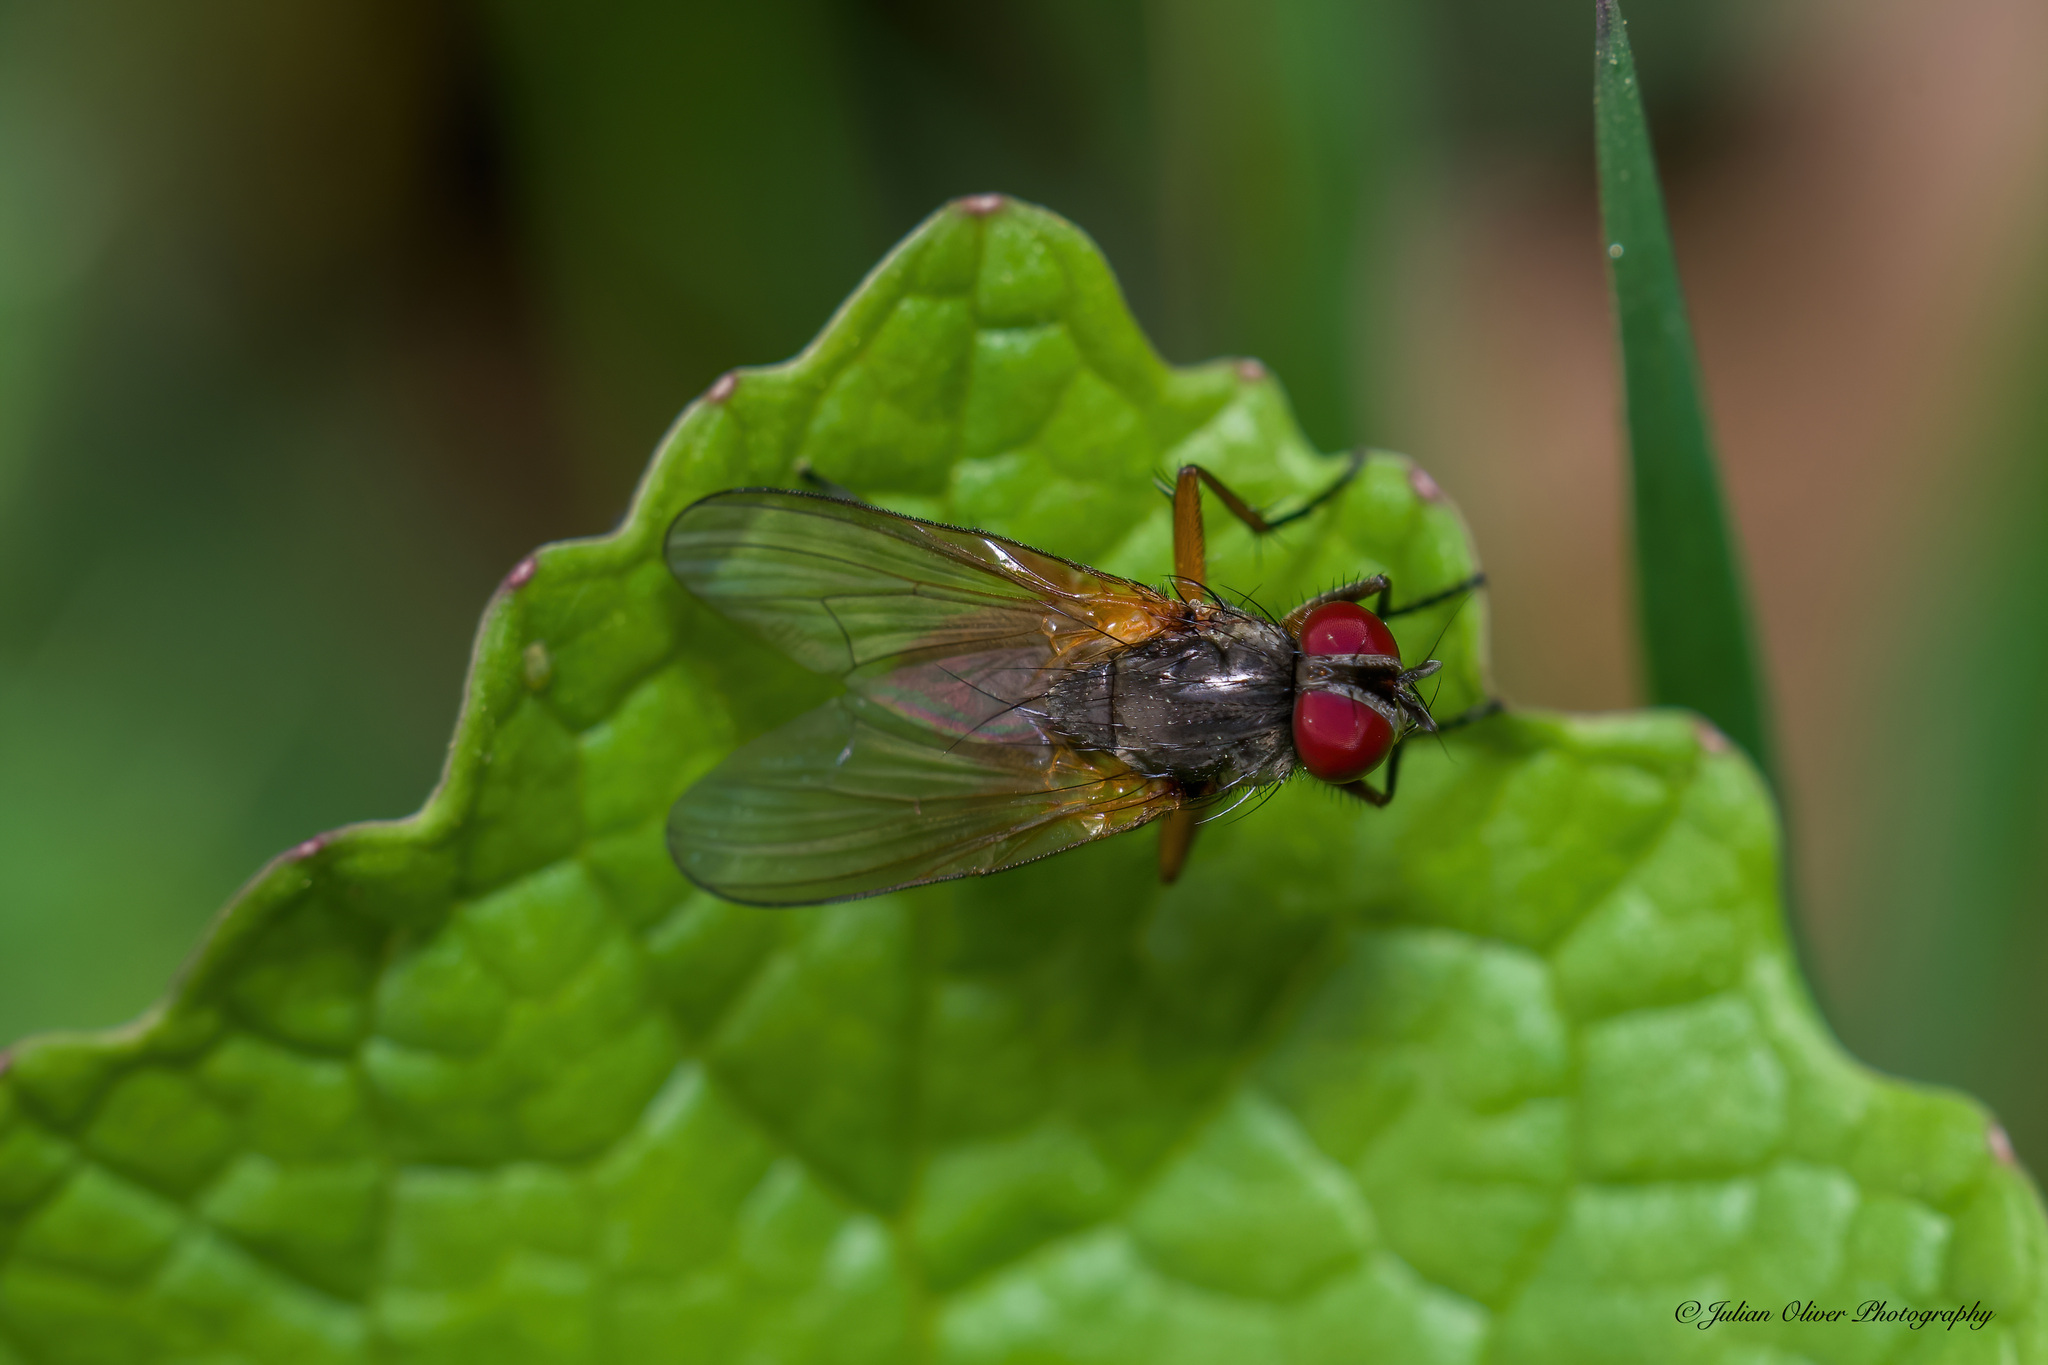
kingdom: Animalia
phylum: Arthropoda
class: Insecta
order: Diptera
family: Fanniidae
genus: Fannia
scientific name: Fannia lustrator
